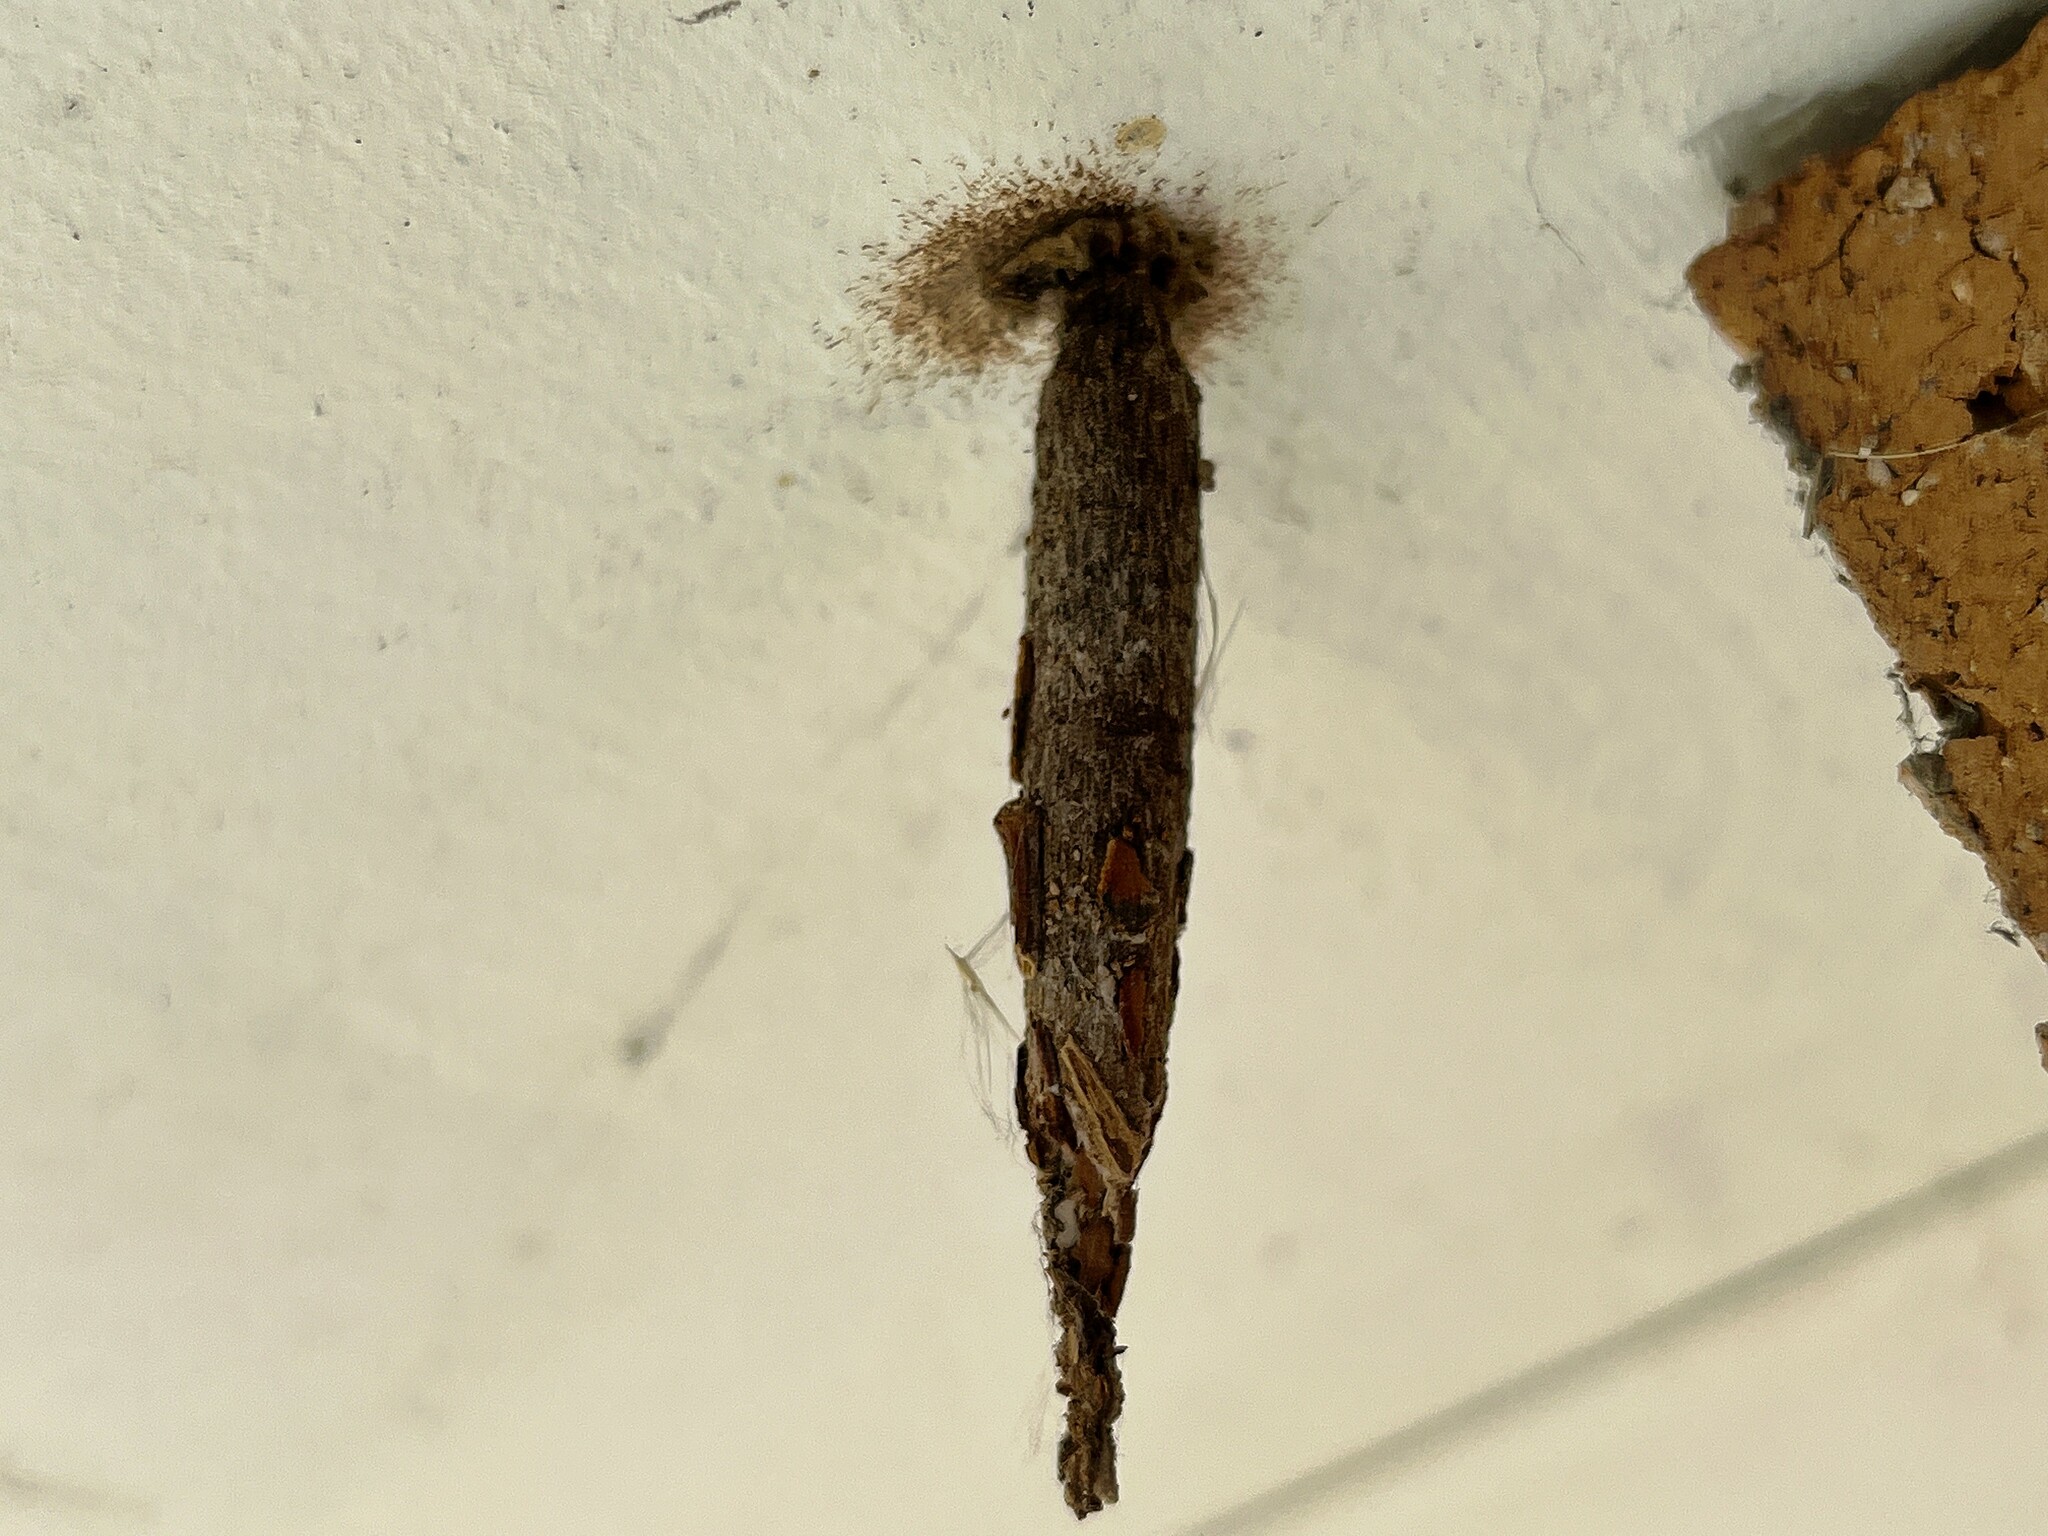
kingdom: Animalia
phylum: Arthropoda
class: Insecta
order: Lepidoptera
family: Psychidae
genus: Liothula
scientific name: Liothula omnivora
